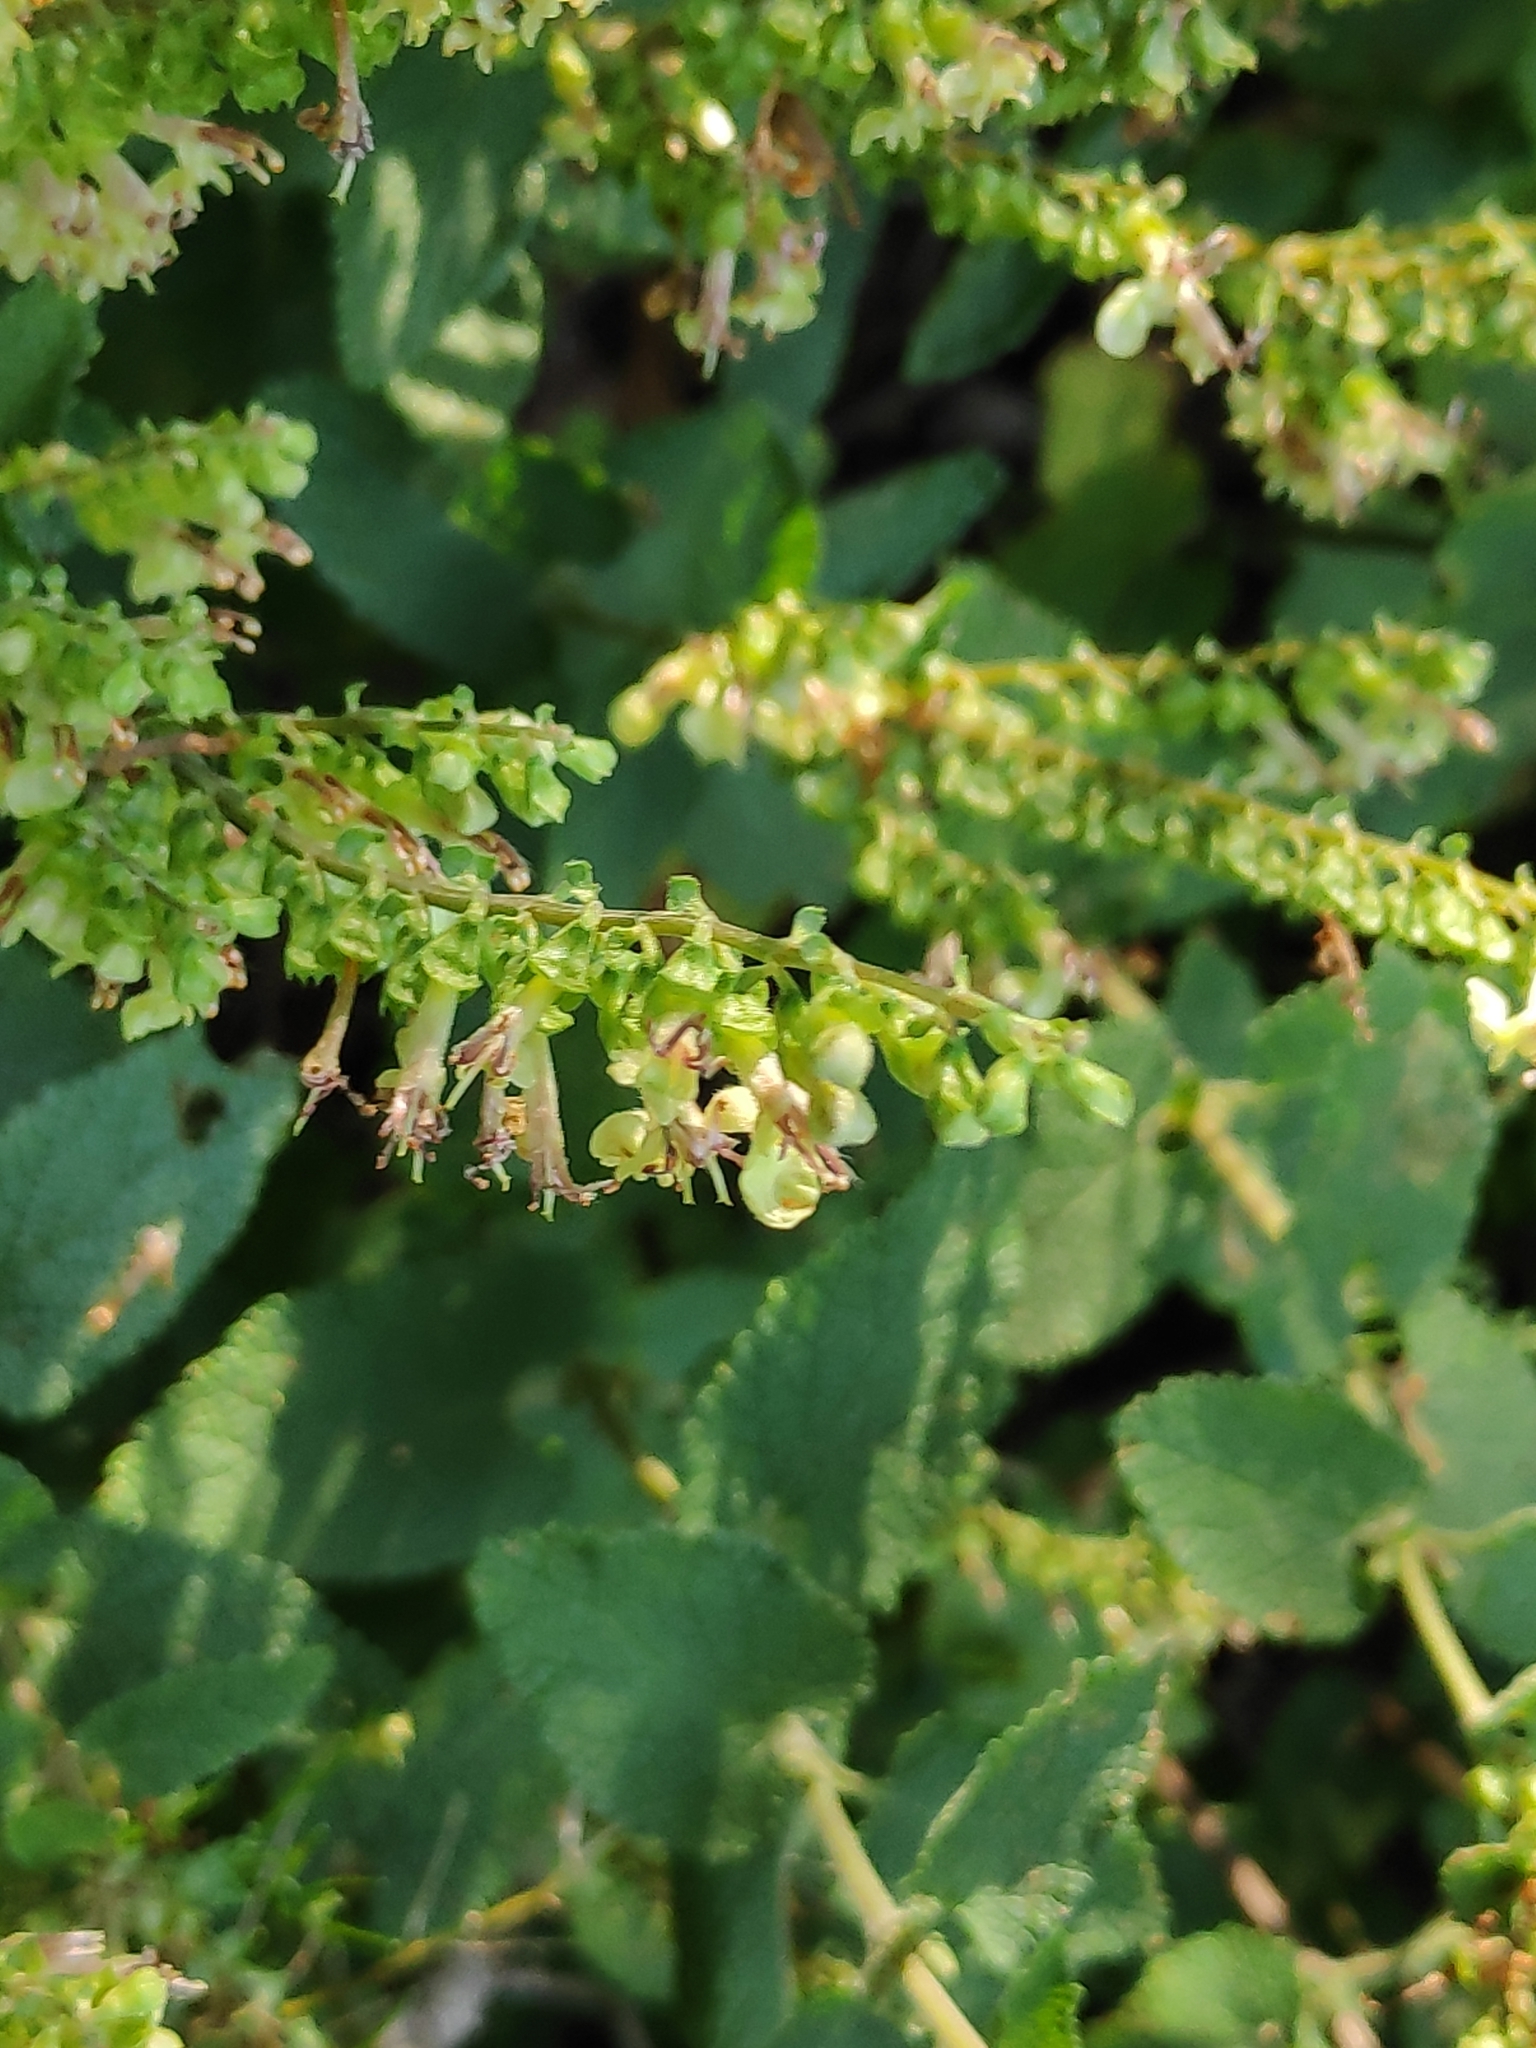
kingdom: Plantae
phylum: Tracheophyta
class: Magnoliopsida
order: Lamiales
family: Lamiaceae
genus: Teucrium
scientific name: Teucrium scorodonia
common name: Woodland germander
